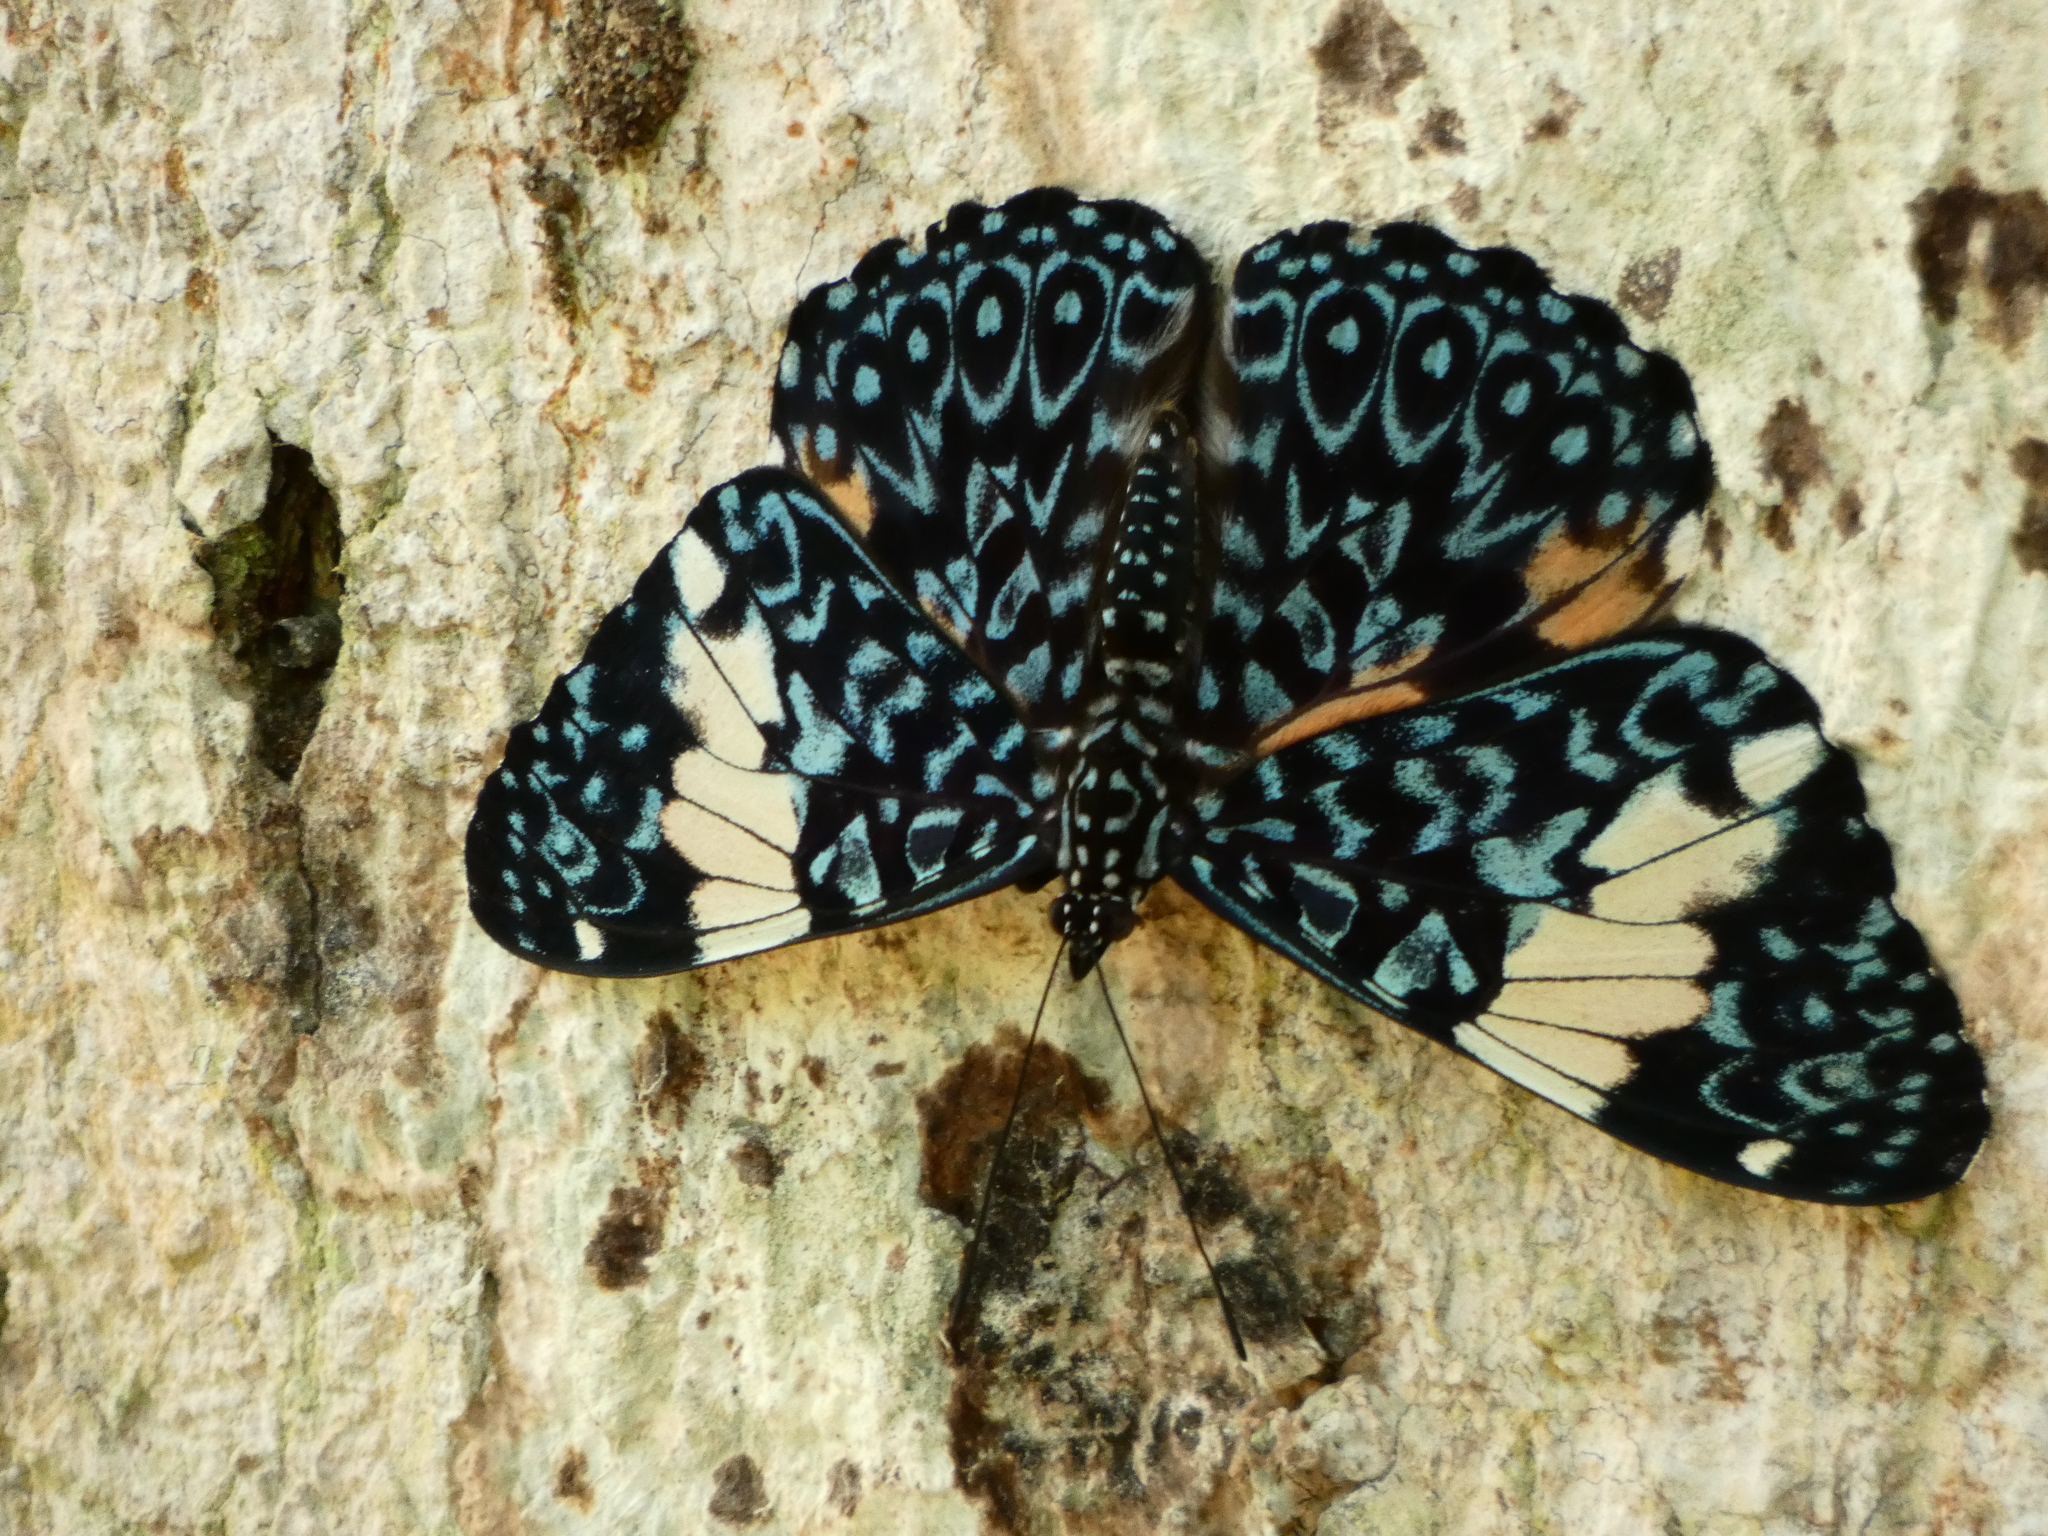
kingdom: Animalia
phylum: Arthropoda
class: Insecta
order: Lepidoptera
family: Nymphalidae
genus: Hamadryas
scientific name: Hamadryas amphinome
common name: Red cracker
